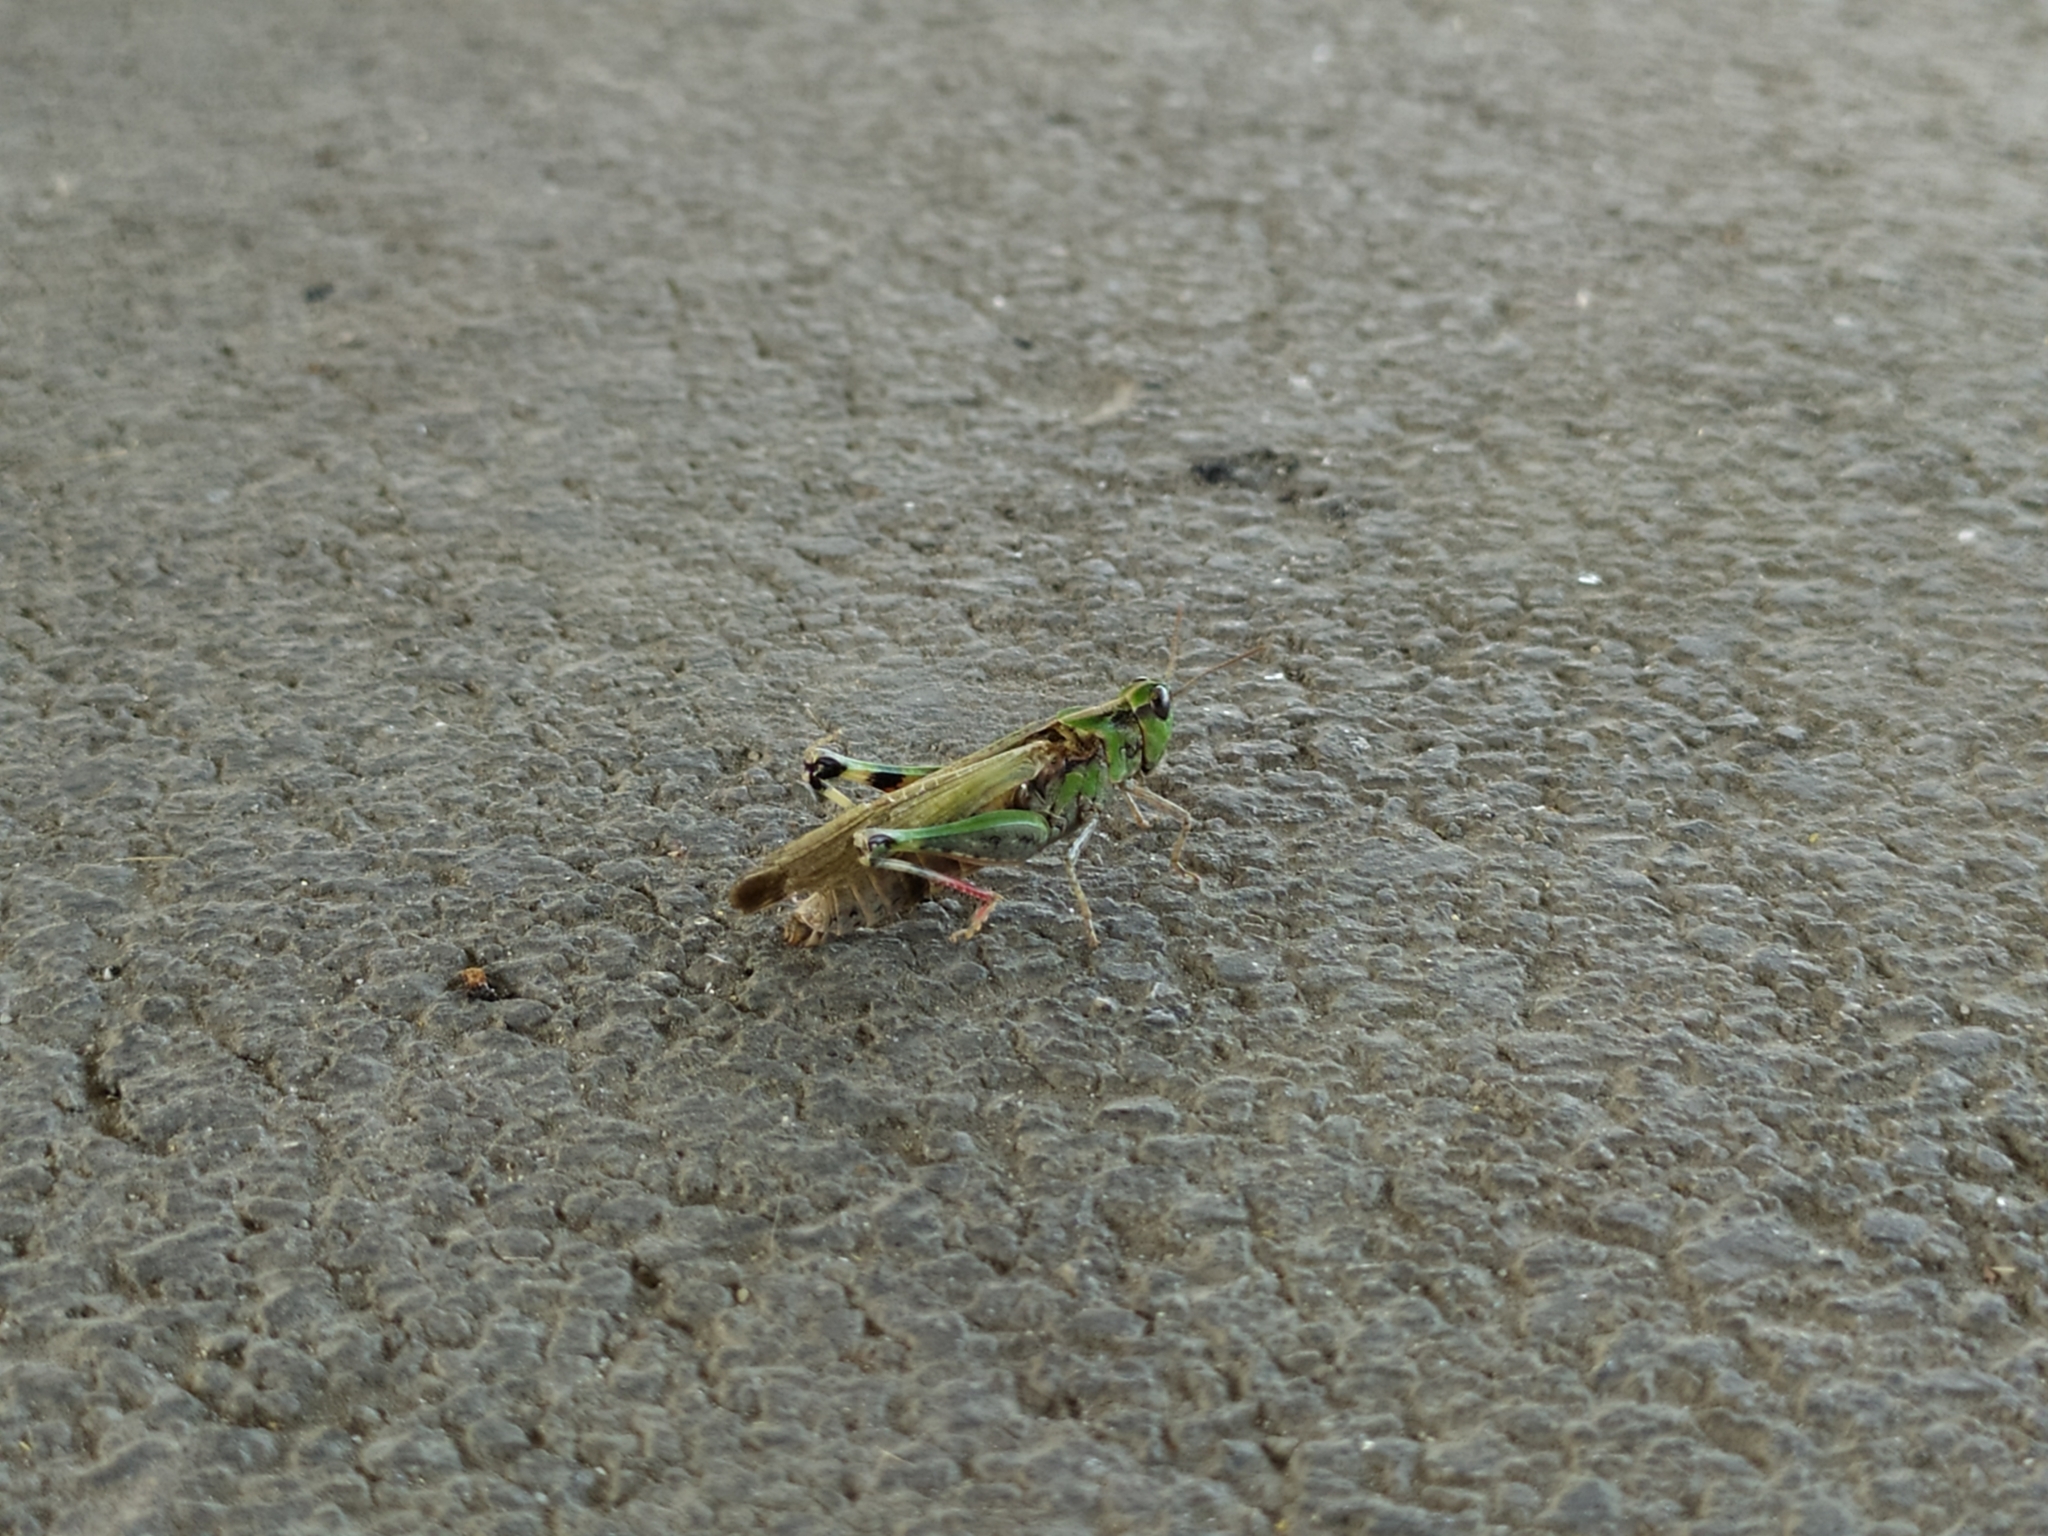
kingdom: Animalia
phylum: Arthropoda
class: Insecta
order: Orthoptera
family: Acrididae
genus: Aiolopus
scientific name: Aiolopus thalassinus
